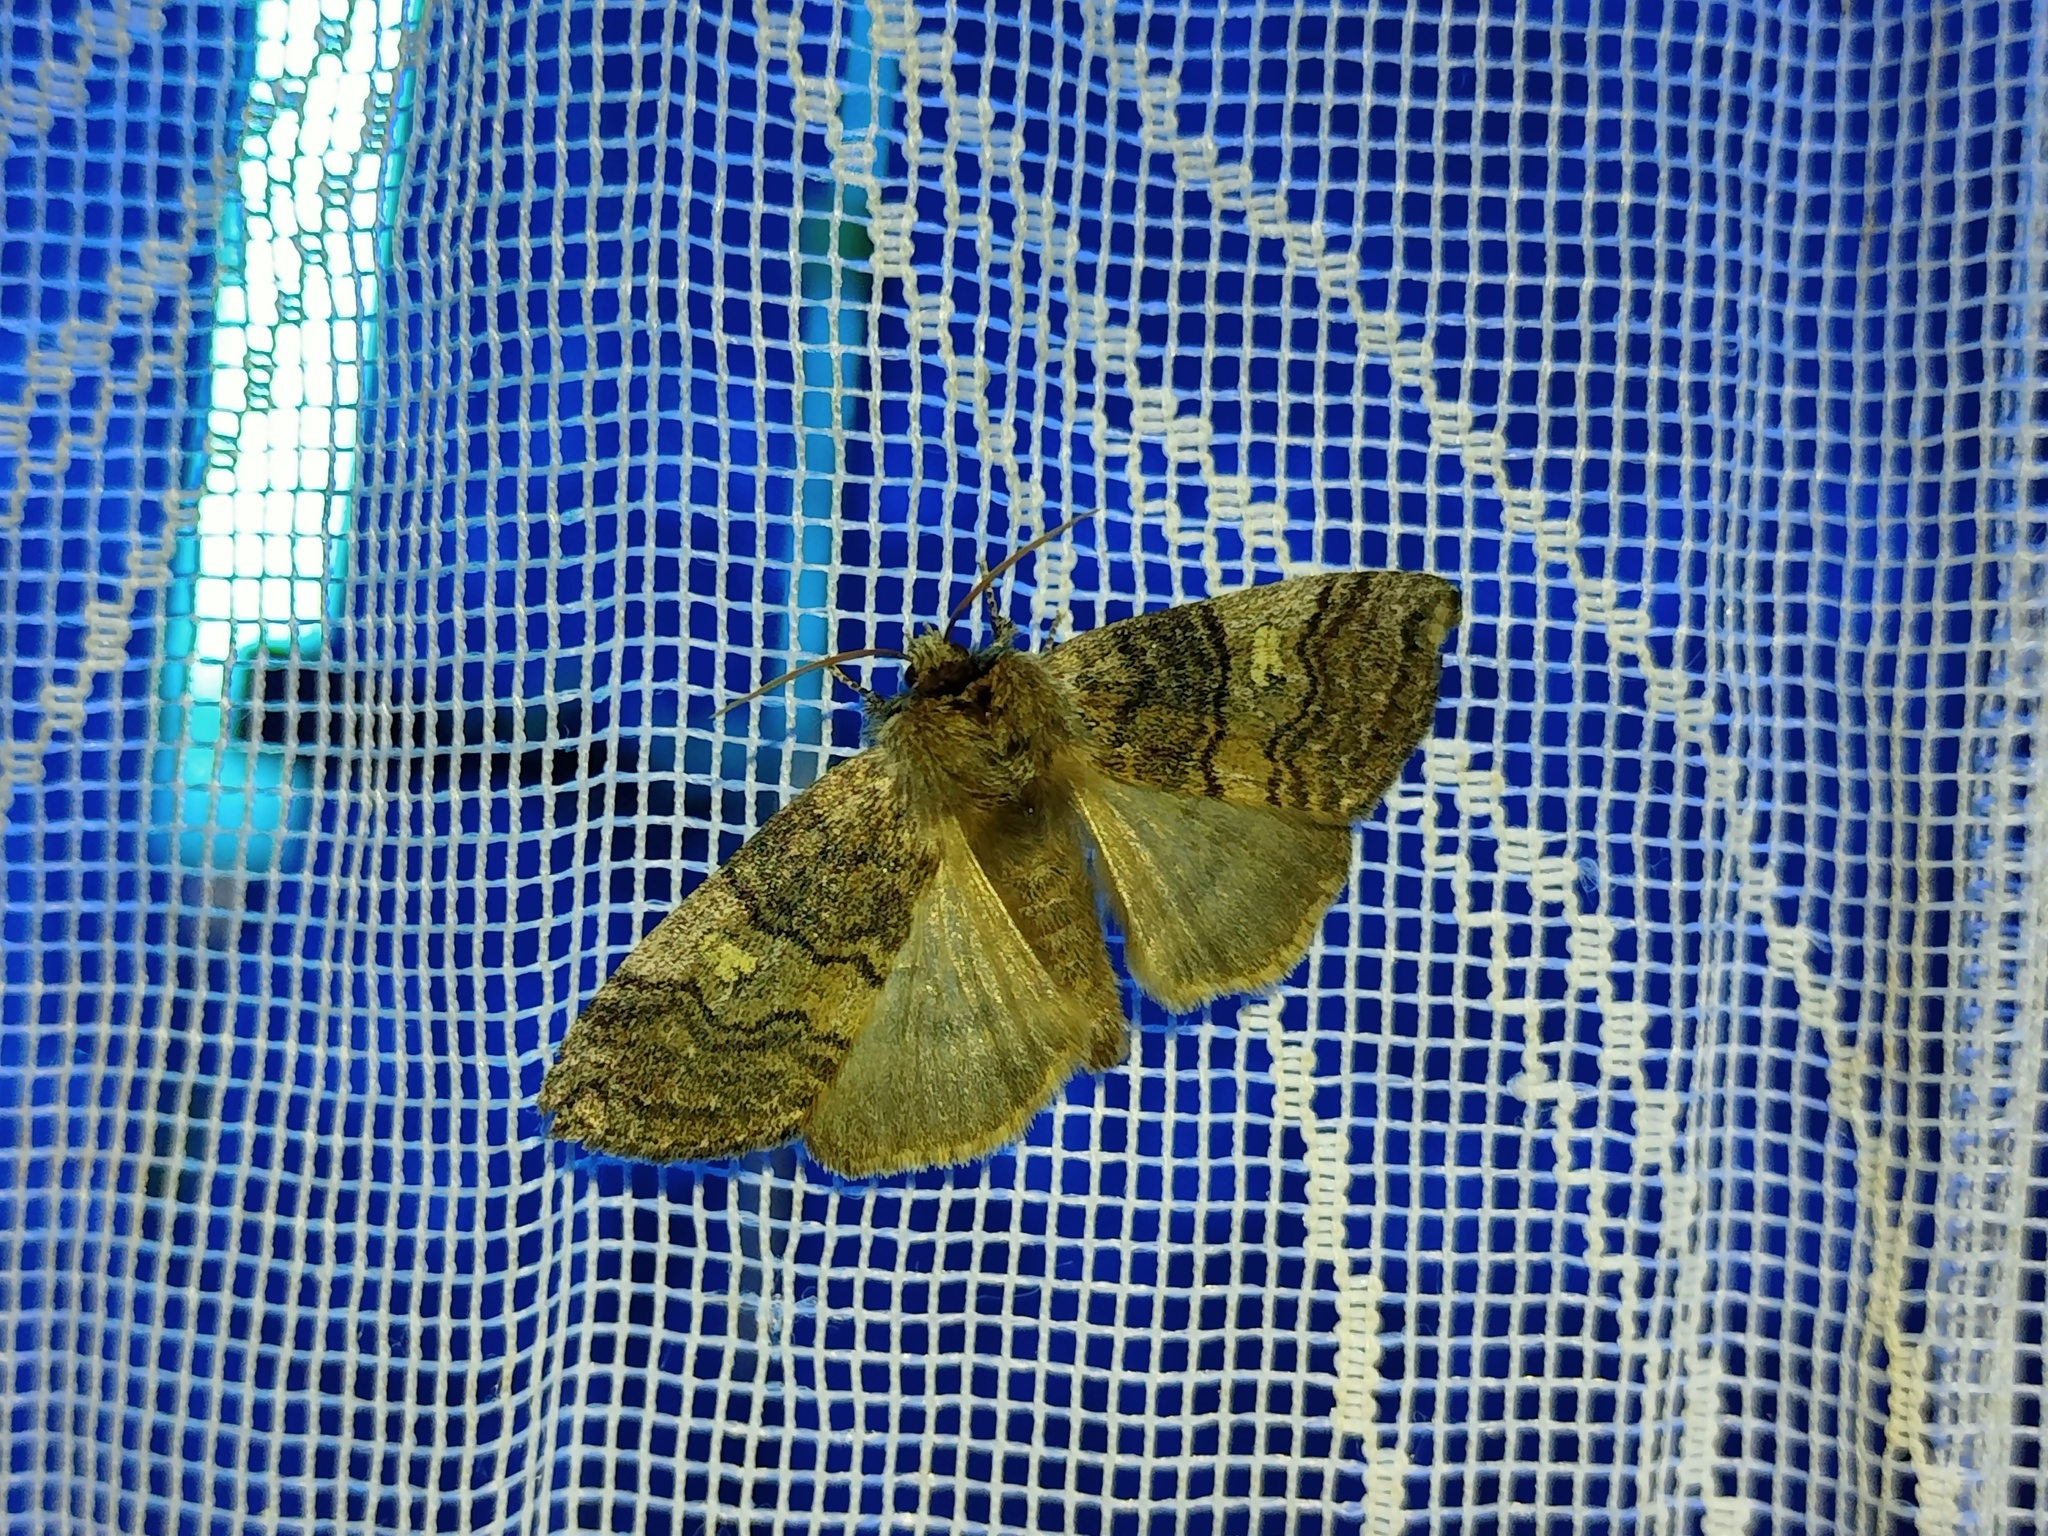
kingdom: Animalia
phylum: Arthropoda
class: Insecta
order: Lepidoptera
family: Drepanidae
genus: Tethea
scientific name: Tethea or
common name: Poplar lutestring
